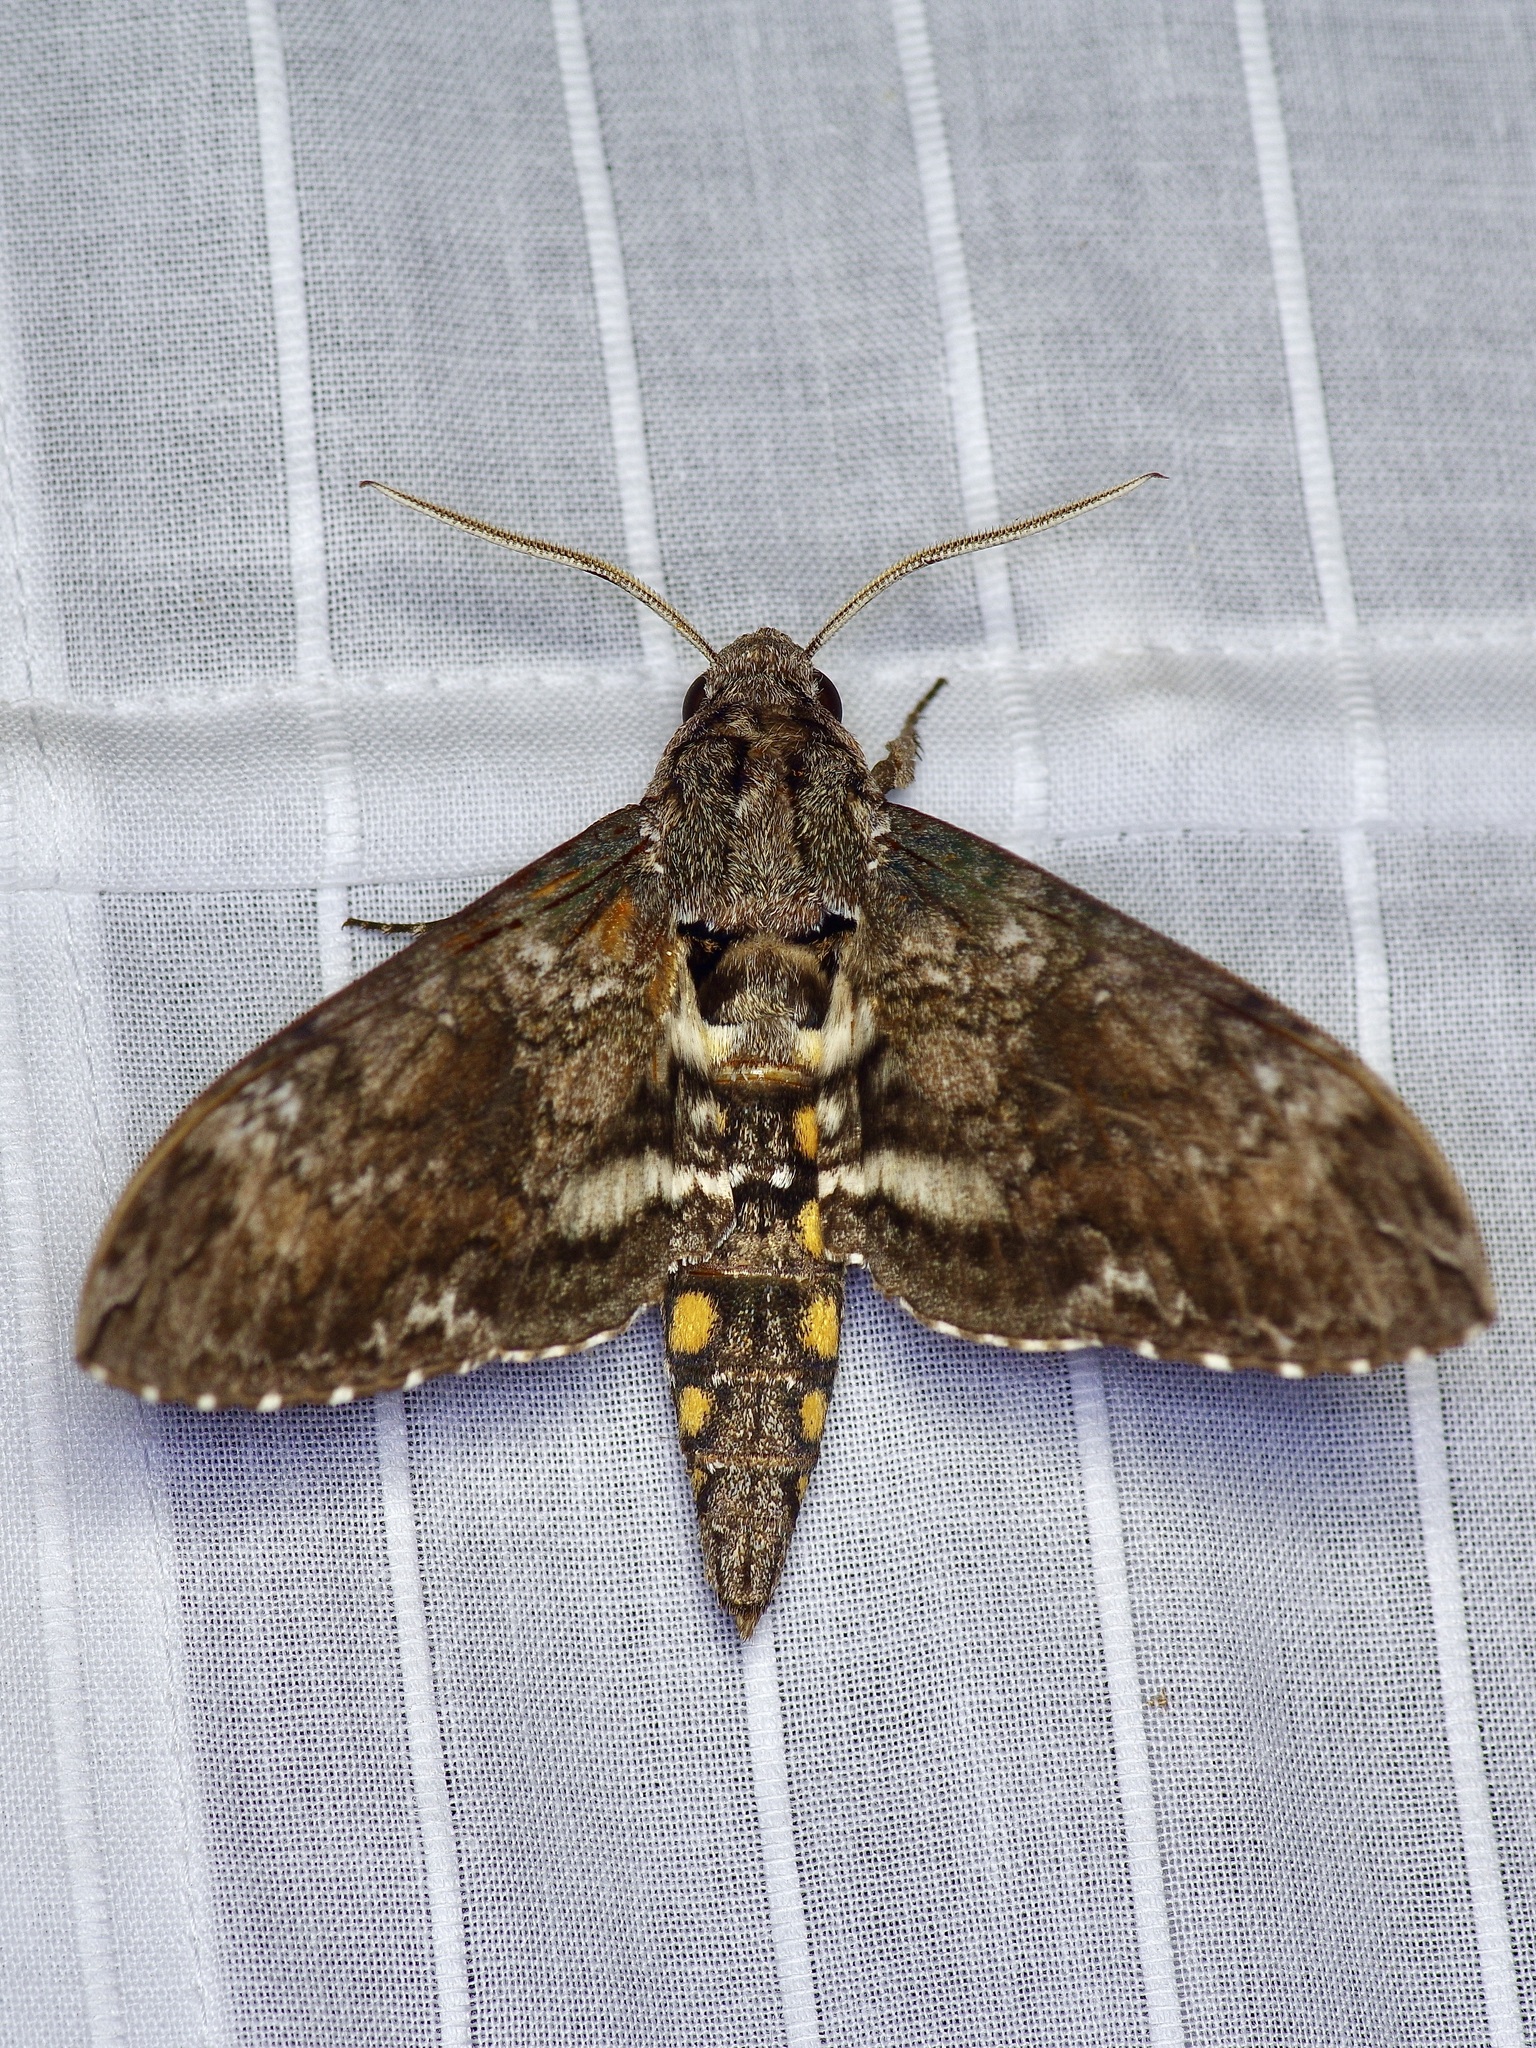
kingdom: Animalia
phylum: Arthropoda
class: Insecta
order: Lepidoptera
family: Sphingidae
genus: Manduca
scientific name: Manduca sexta
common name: Carolina sphinx
